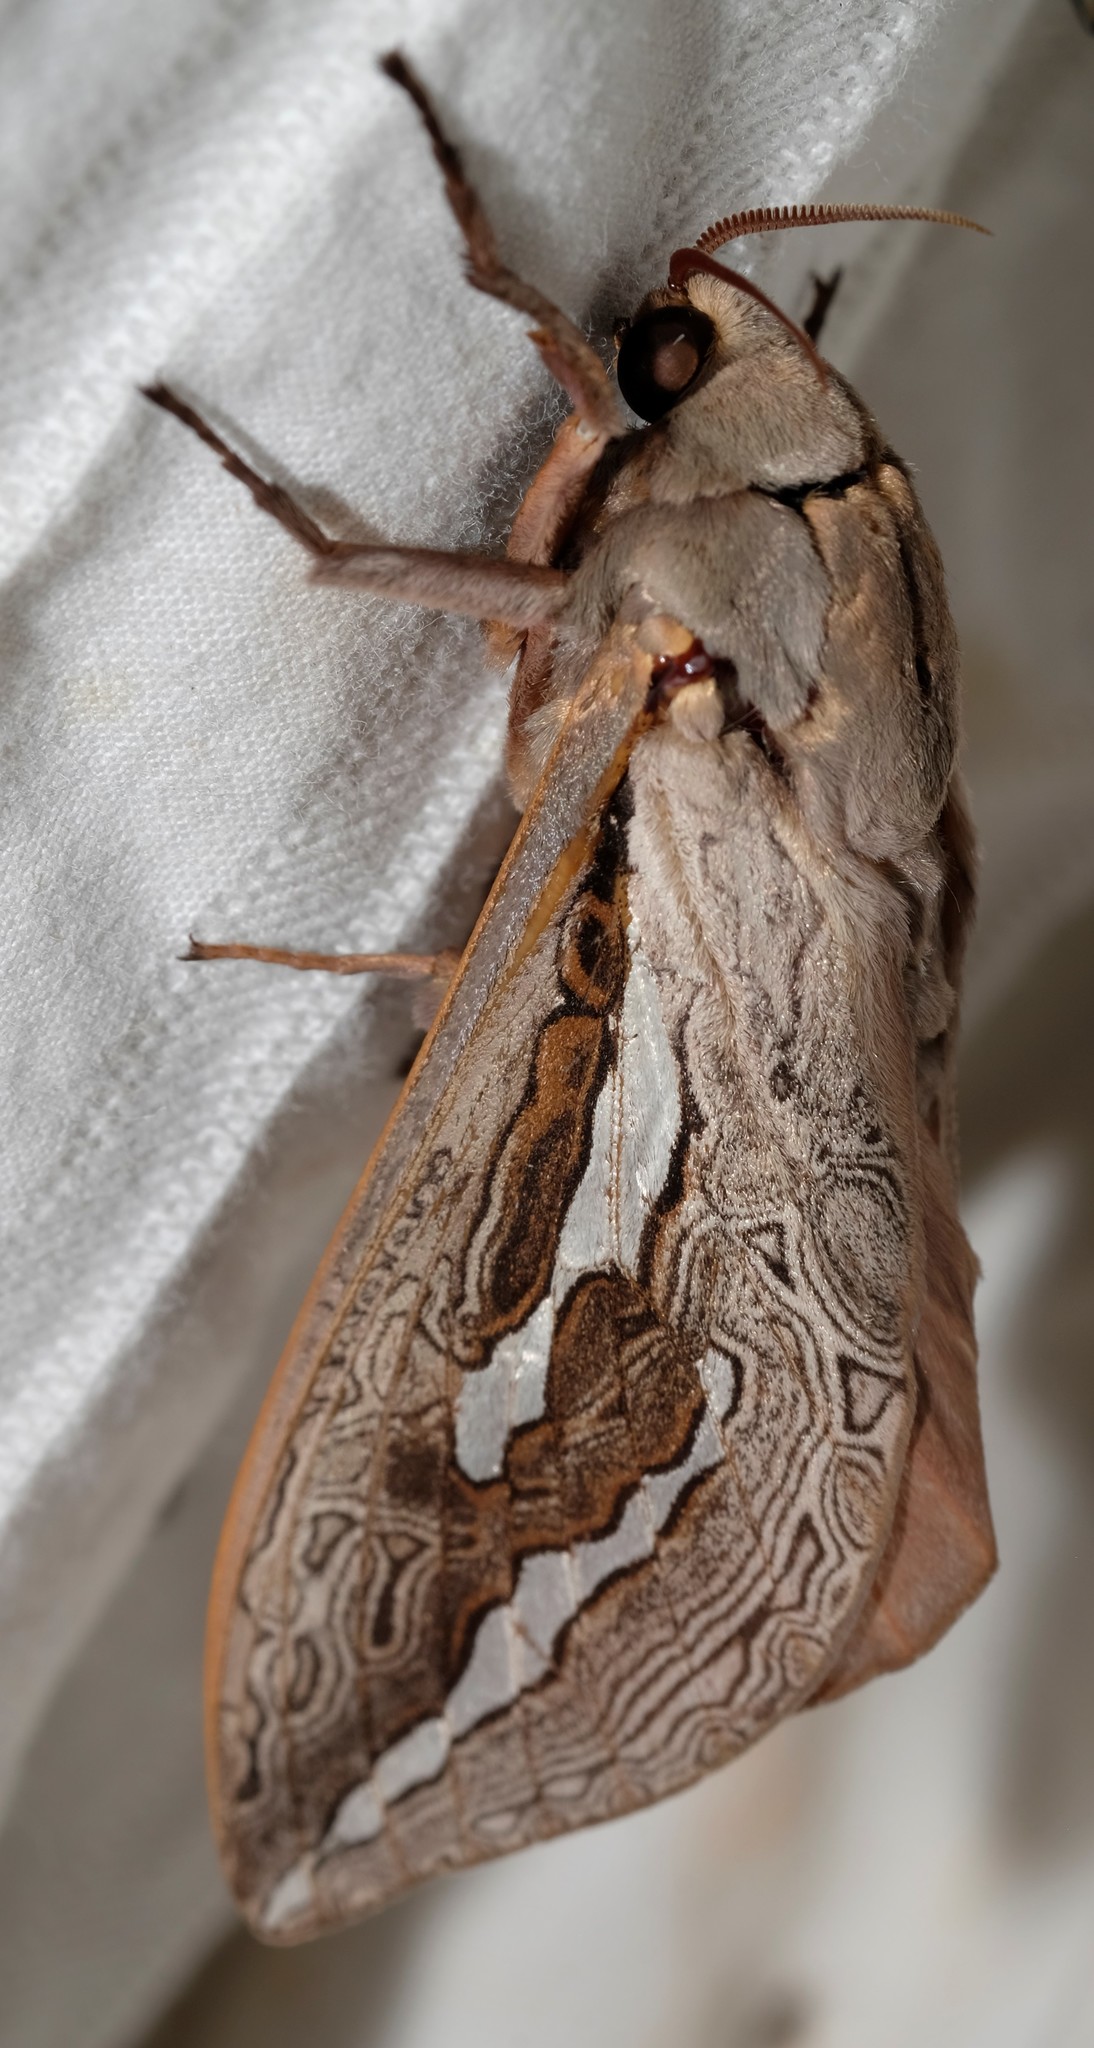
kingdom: Animalia
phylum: Arthropoda
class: Insecta
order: Lepidoptera
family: Hepialidae
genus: Abantiades
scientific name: Abantiades labyrinthicus
